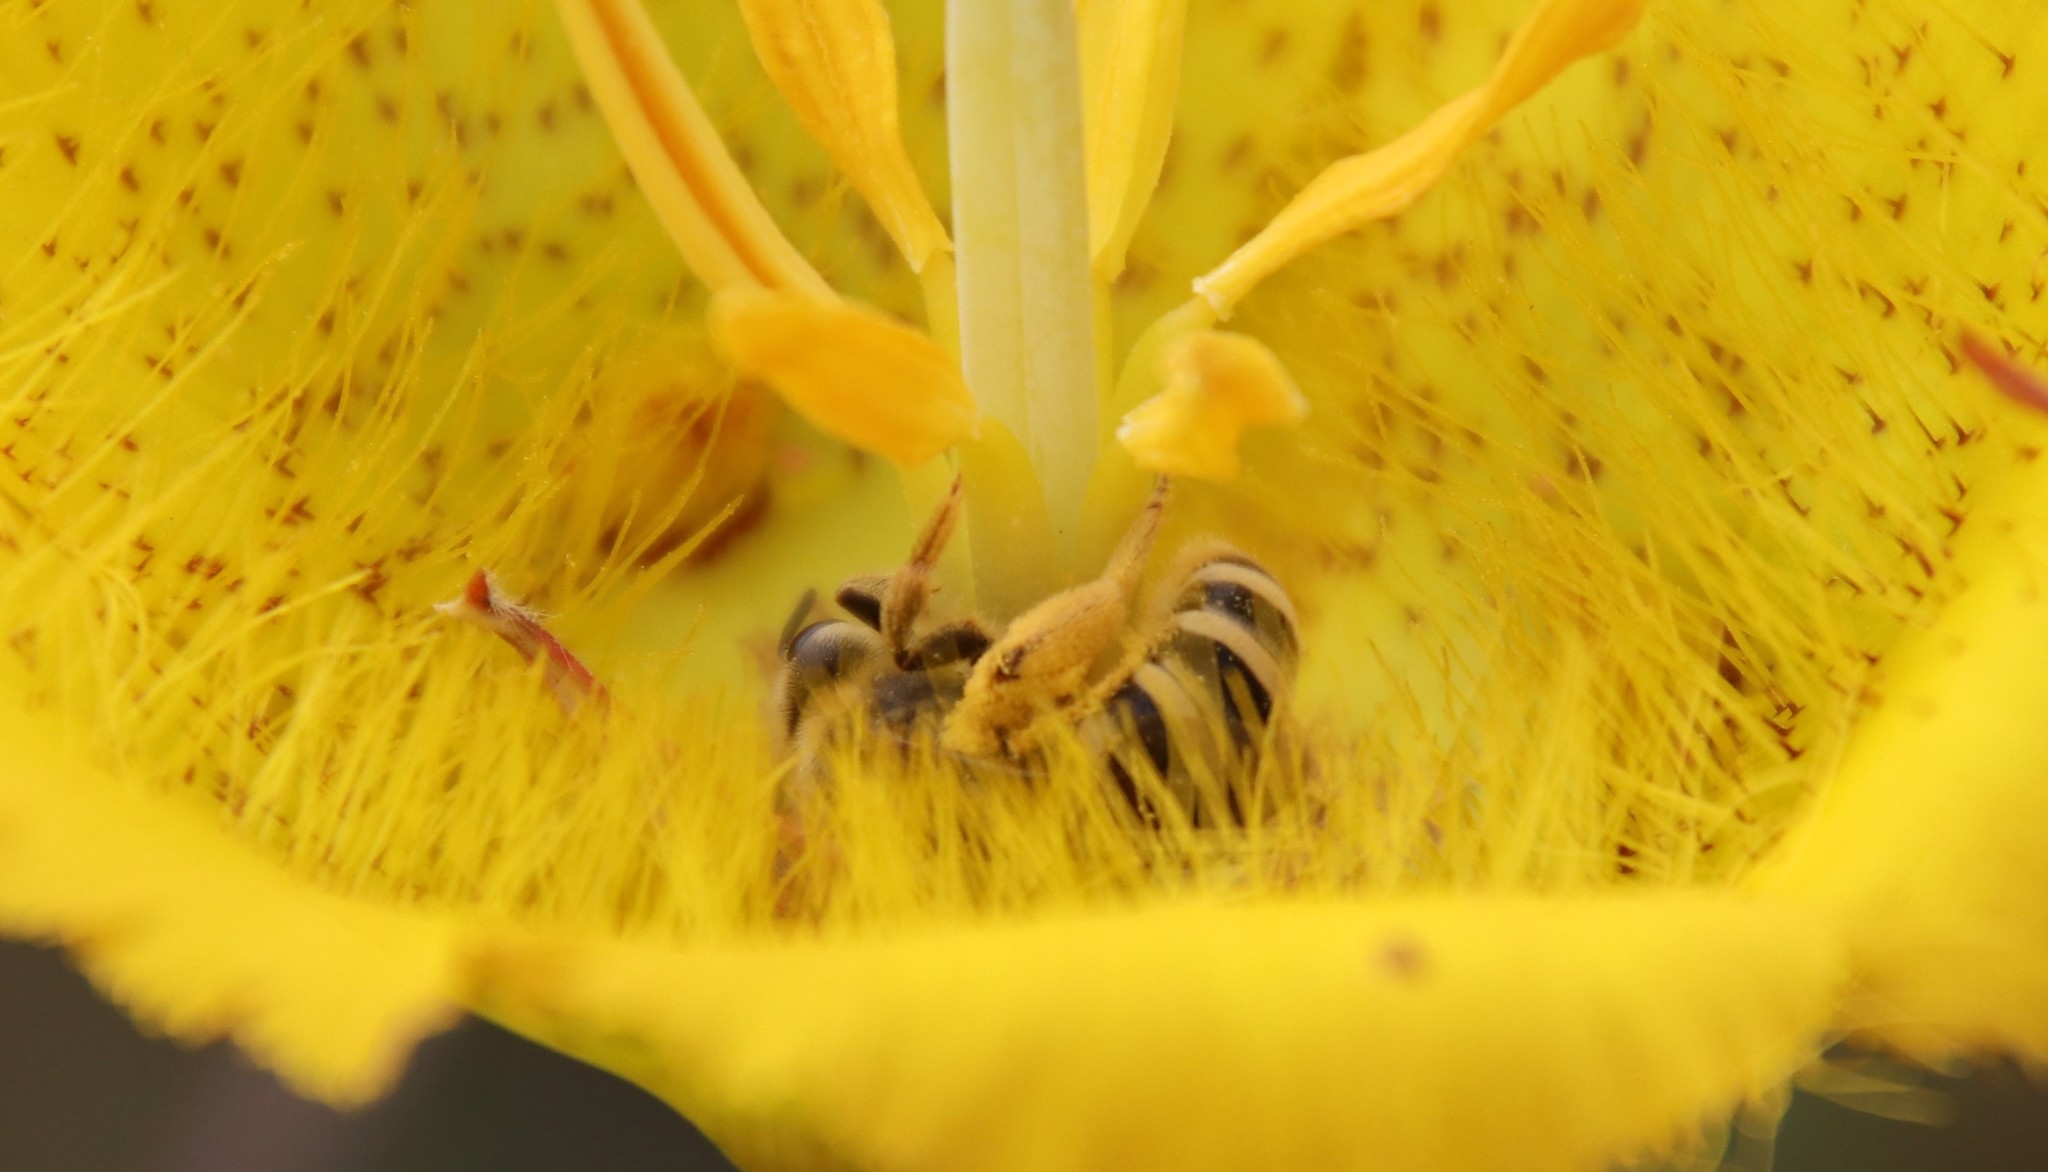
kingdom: Animalia
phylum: Arthropoda
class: Insecta
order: Hymenoptera
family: Halictidae
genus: Halictus
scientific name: Halictus farinosus
